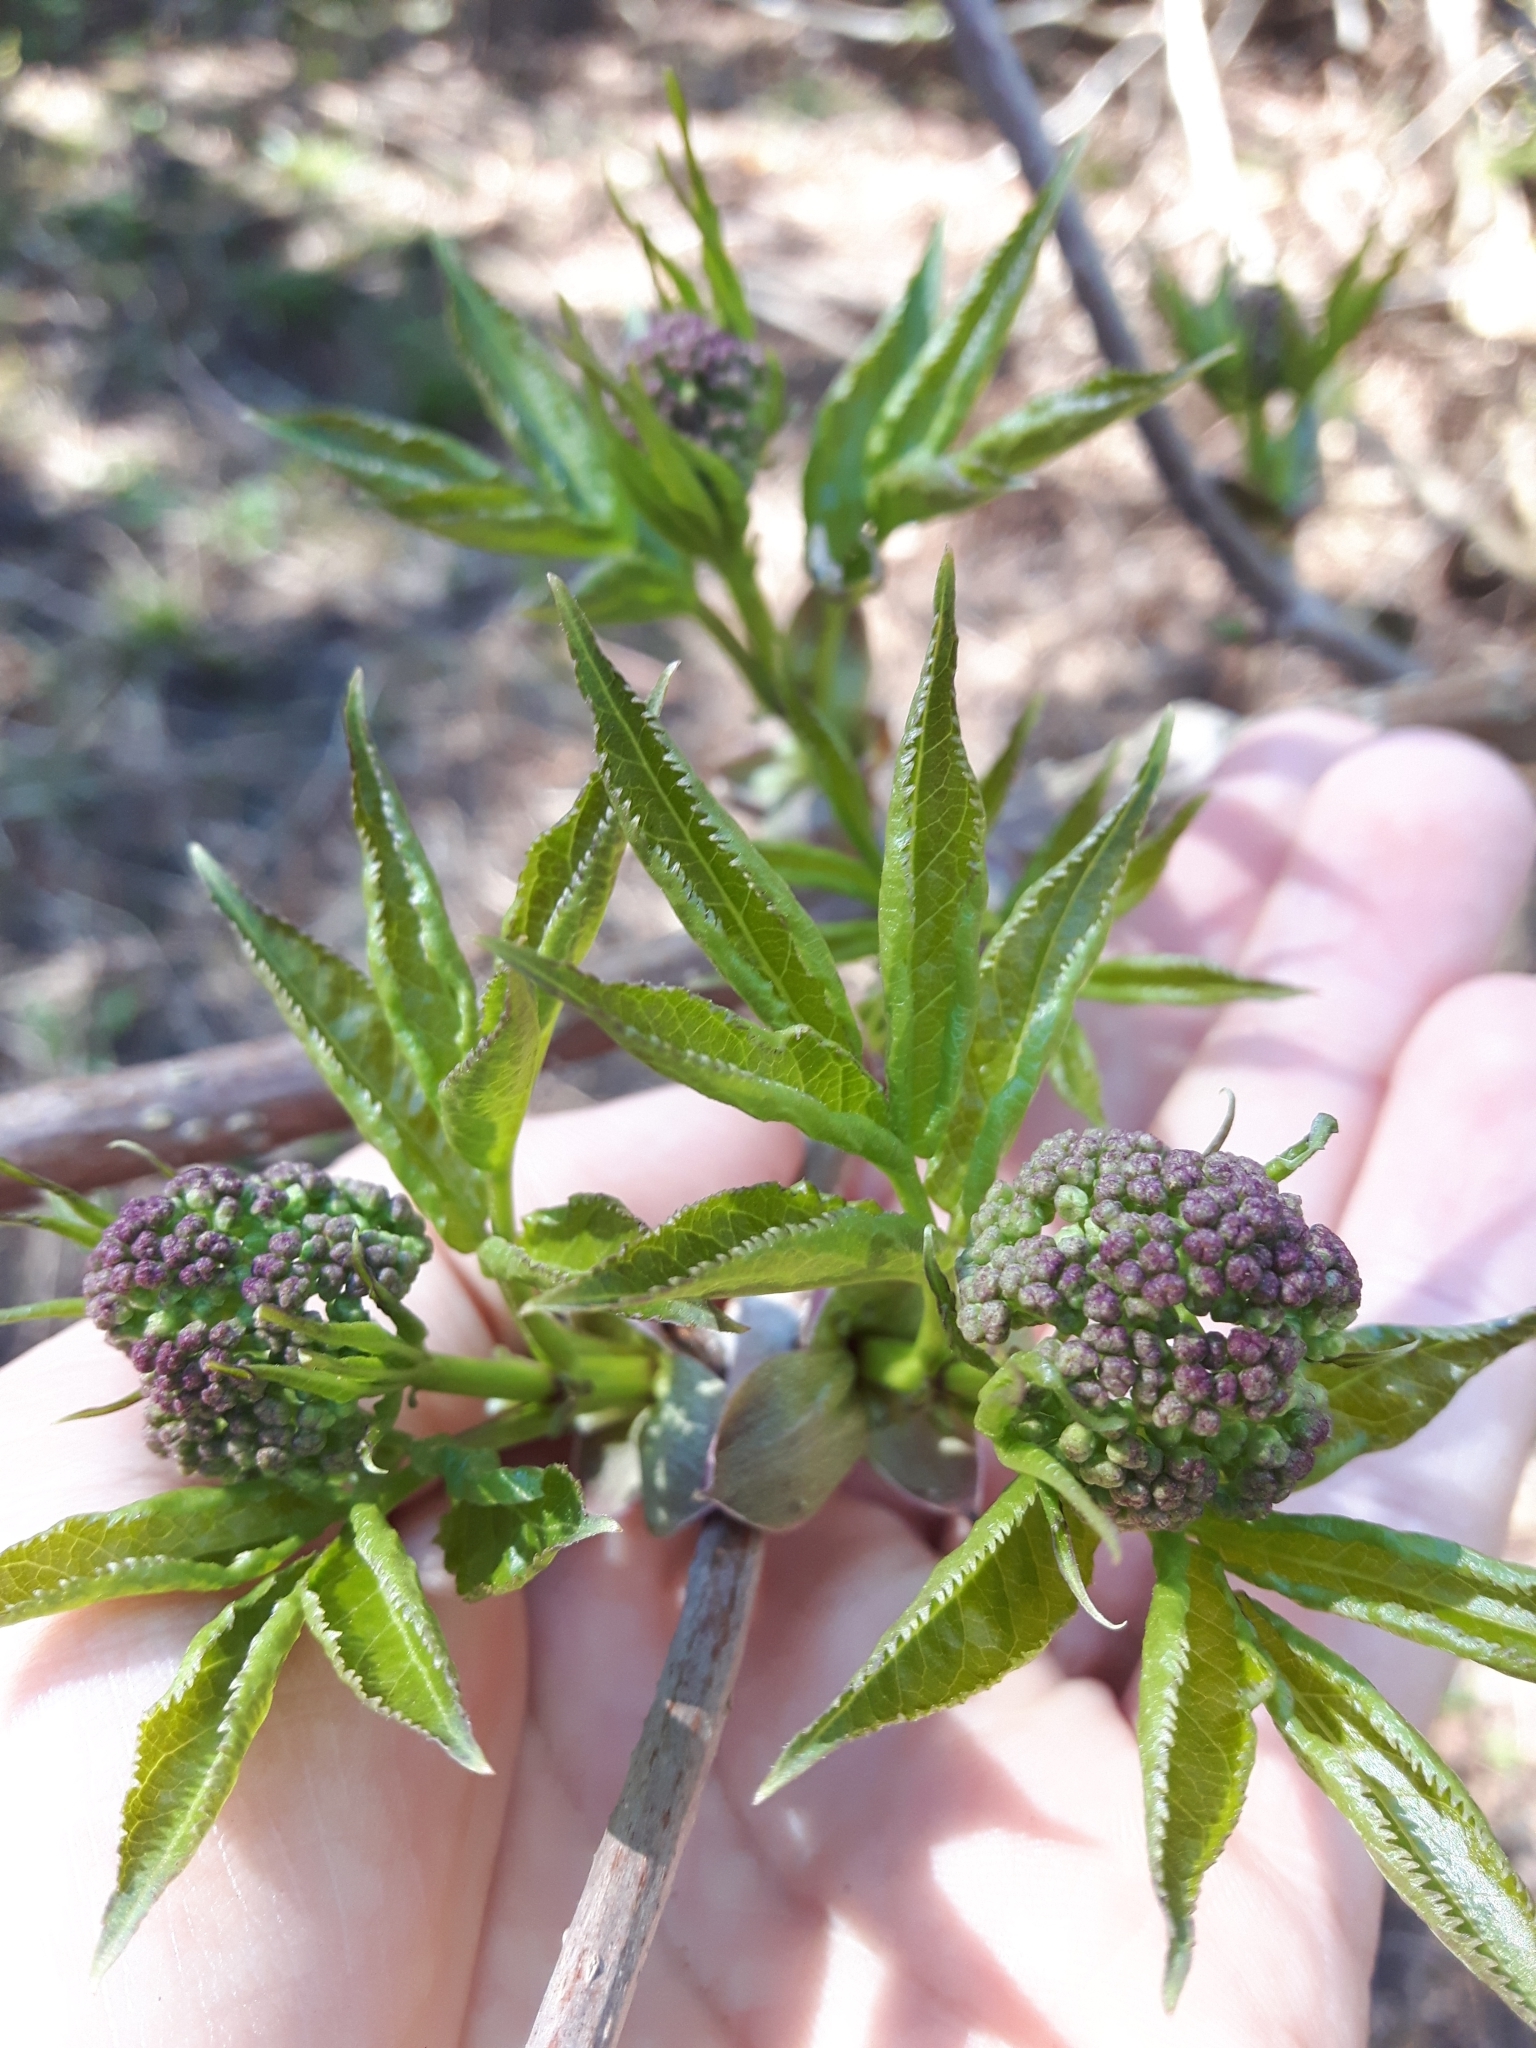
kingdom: Plantae
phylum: Tracheophyta
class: Magnoliopsida
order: Dipsacales
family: Viburnaceae
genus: Sambucus
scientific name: Sambucus racemosa
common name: Red-berried elder
